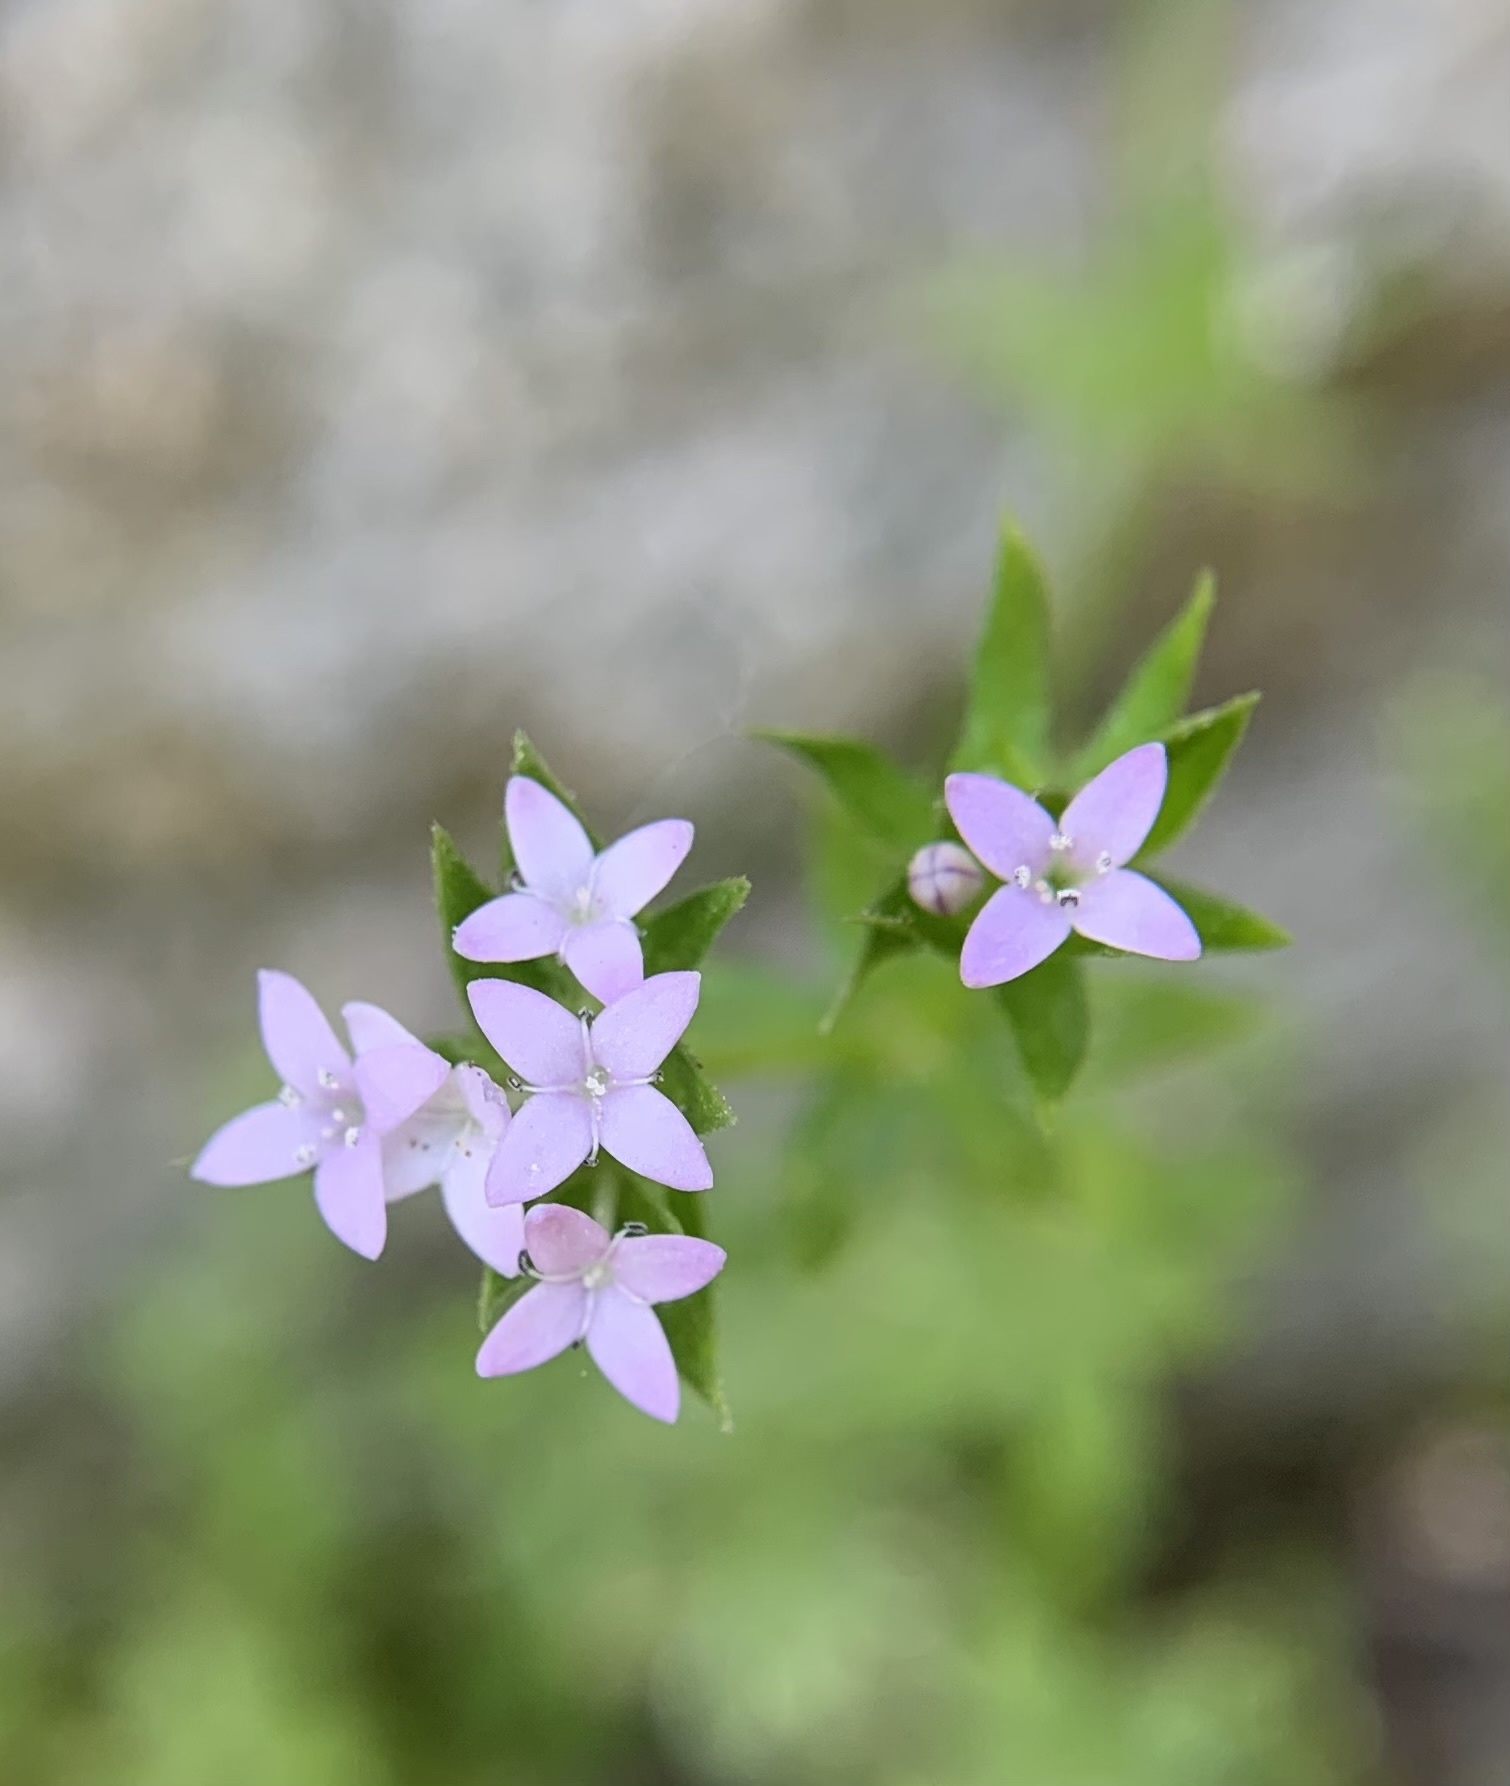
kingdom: Plantae
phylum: Tracheophyta
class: Magnoliopsida
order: Gentianales
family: Rubiaceae
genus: Sherardia
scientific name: Sherardia arvensis
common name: Field madder
